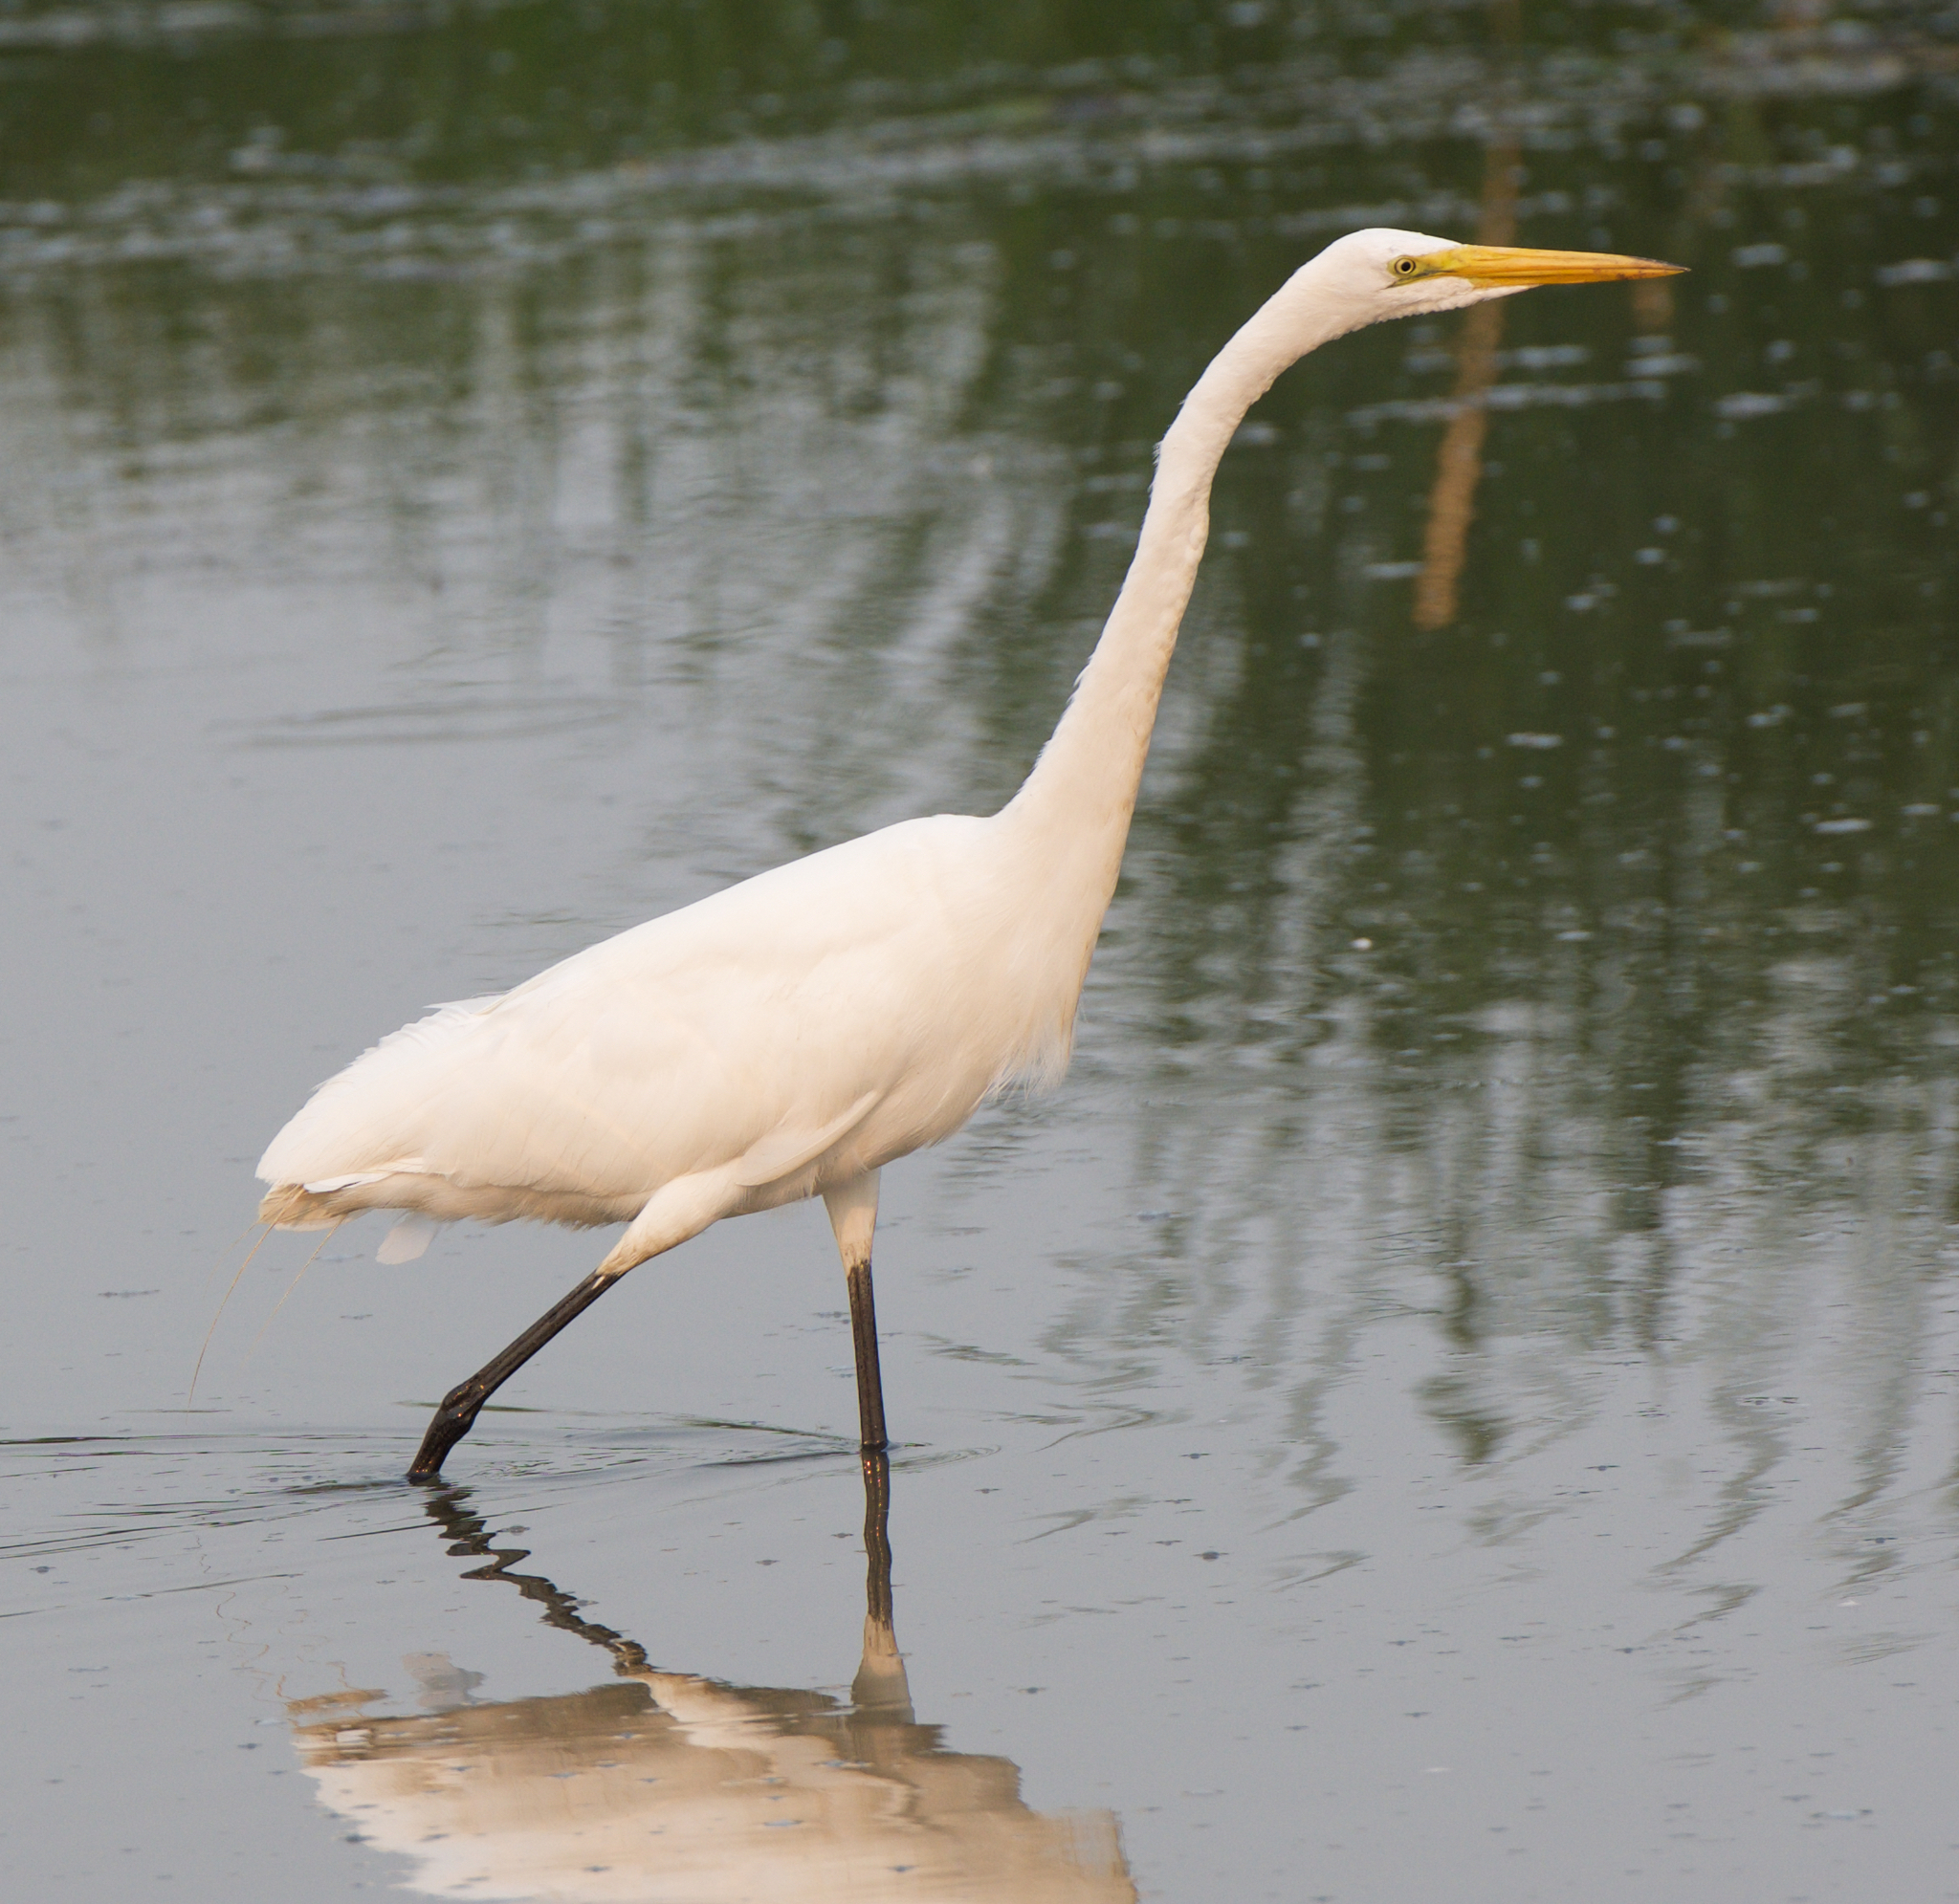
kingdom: Animalia
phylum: Chordata
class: Aves
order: Pelecaniformes
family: Ardeidae
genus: Ardea
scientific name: Ardea alba
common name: Great egret
